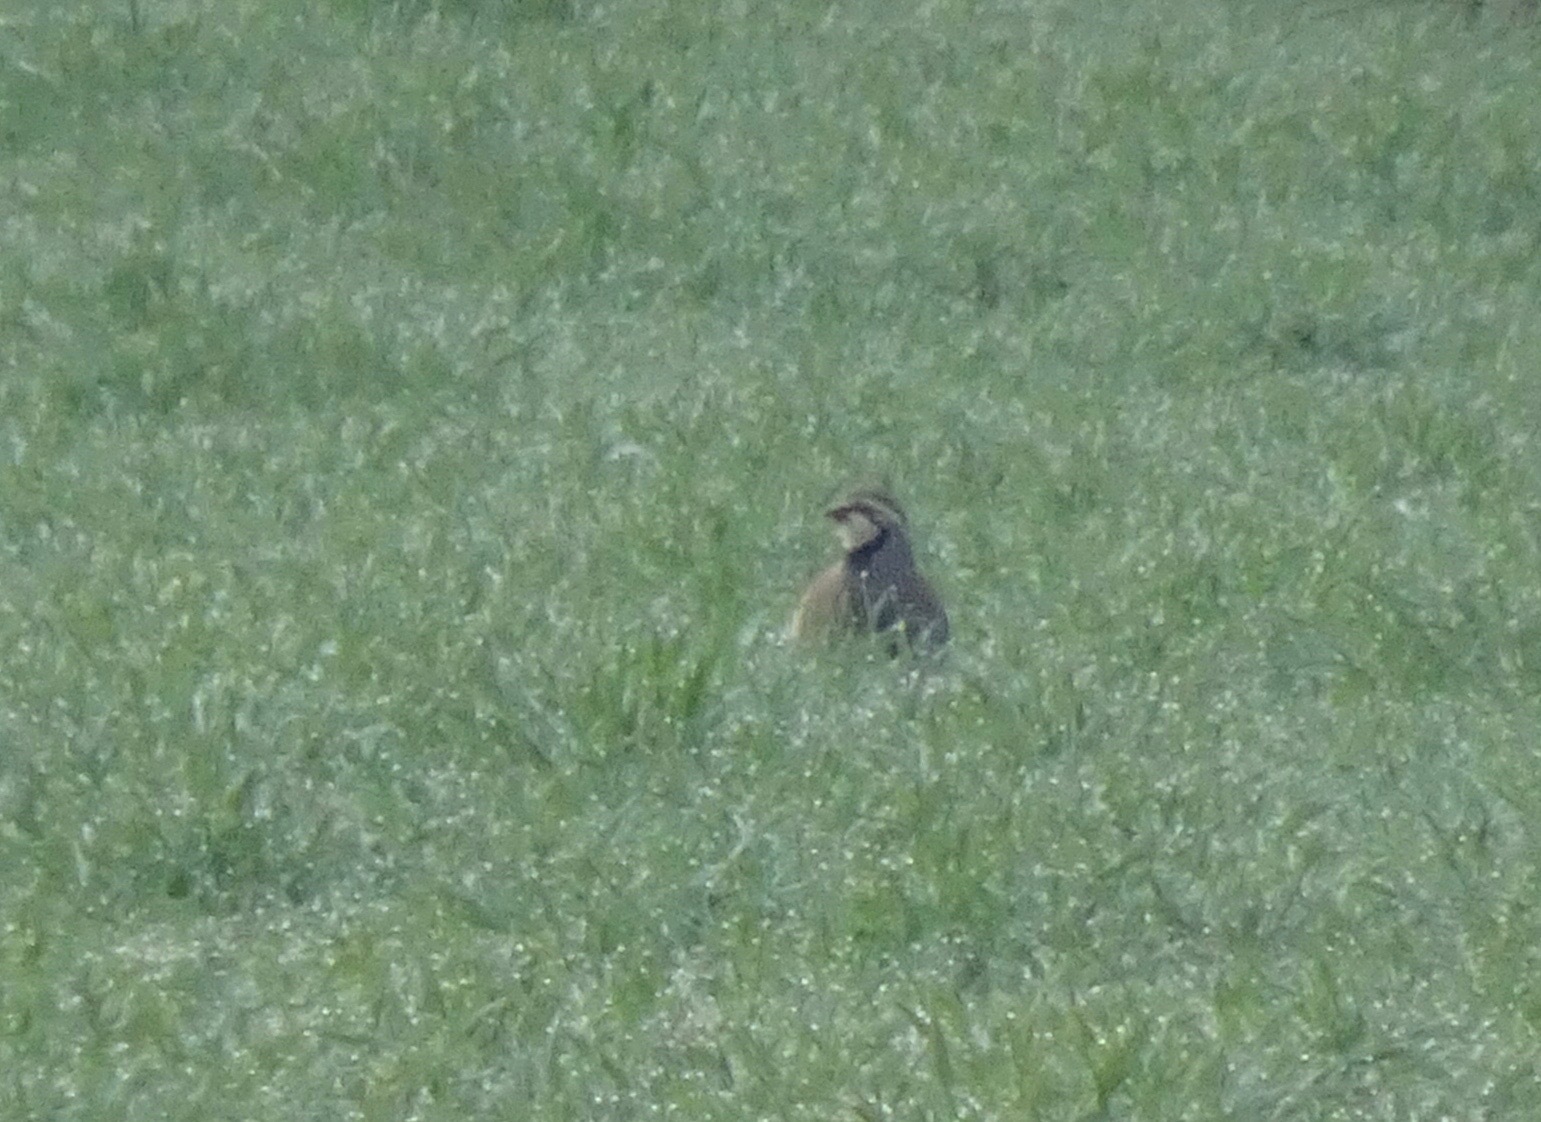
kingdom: Animalia
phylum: Chordata
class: Aves
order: Galliformes
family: Phasianidae
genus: Alectoris
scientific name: Alectoris rufa
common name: Red-legged partridge
